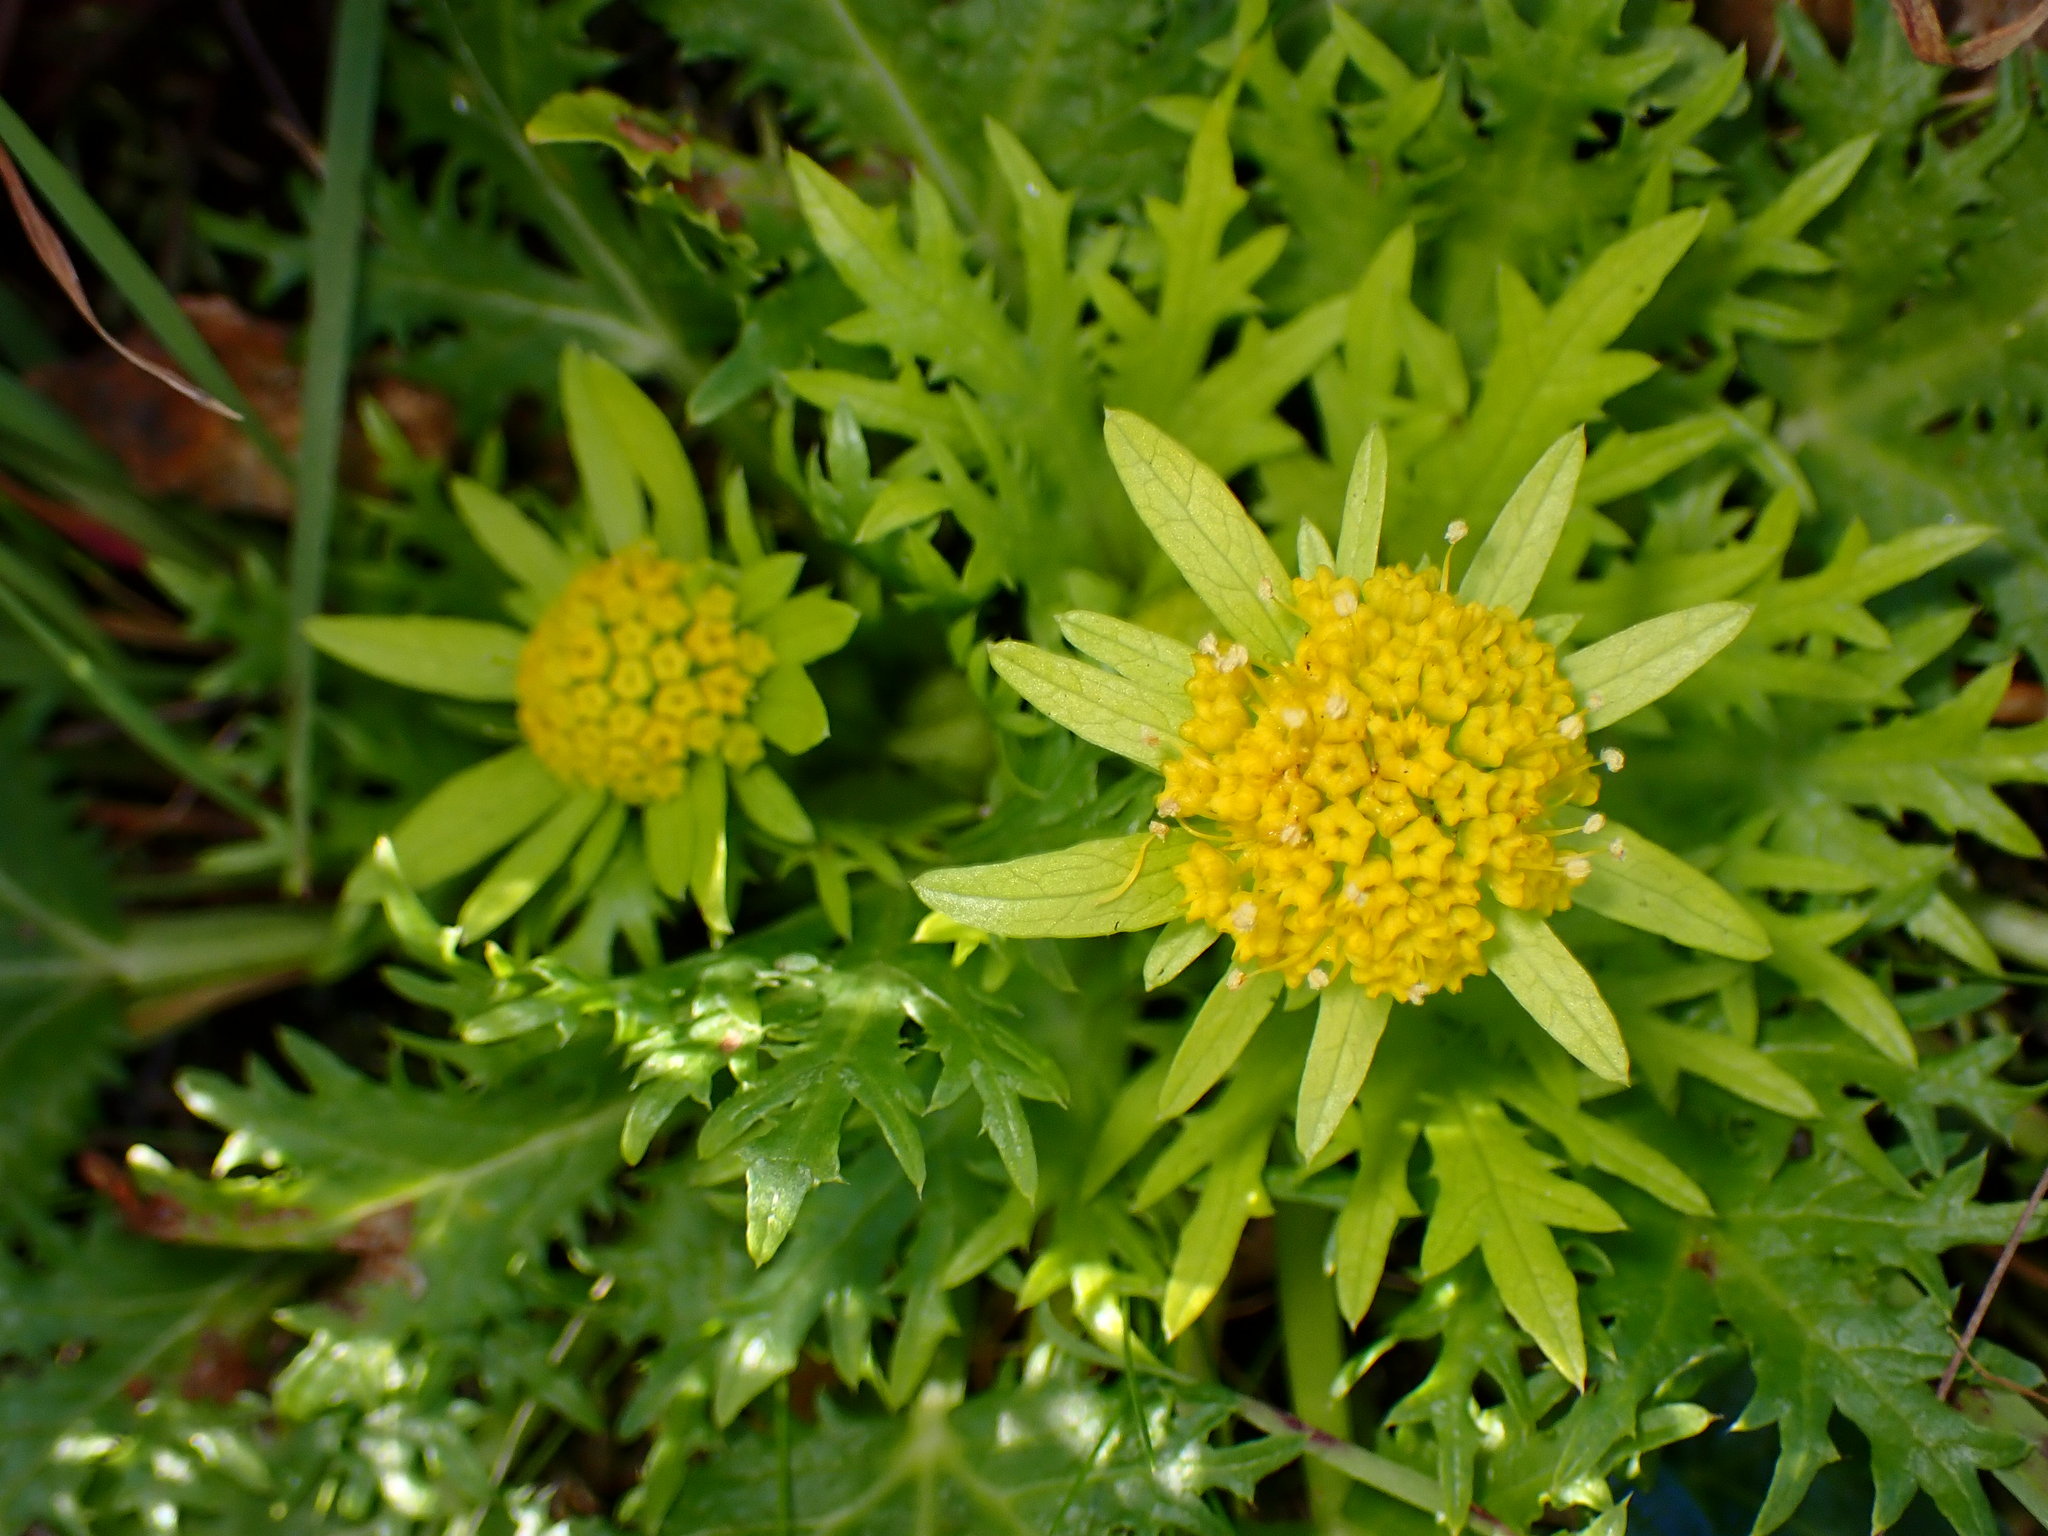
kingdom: Plantae
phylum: Tracheophyta
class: Magnoliopsida
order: Apiales
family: Apiaceae
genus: Sanicula
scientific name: Sanicula arctopoides
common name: Footsteps-of-spring
